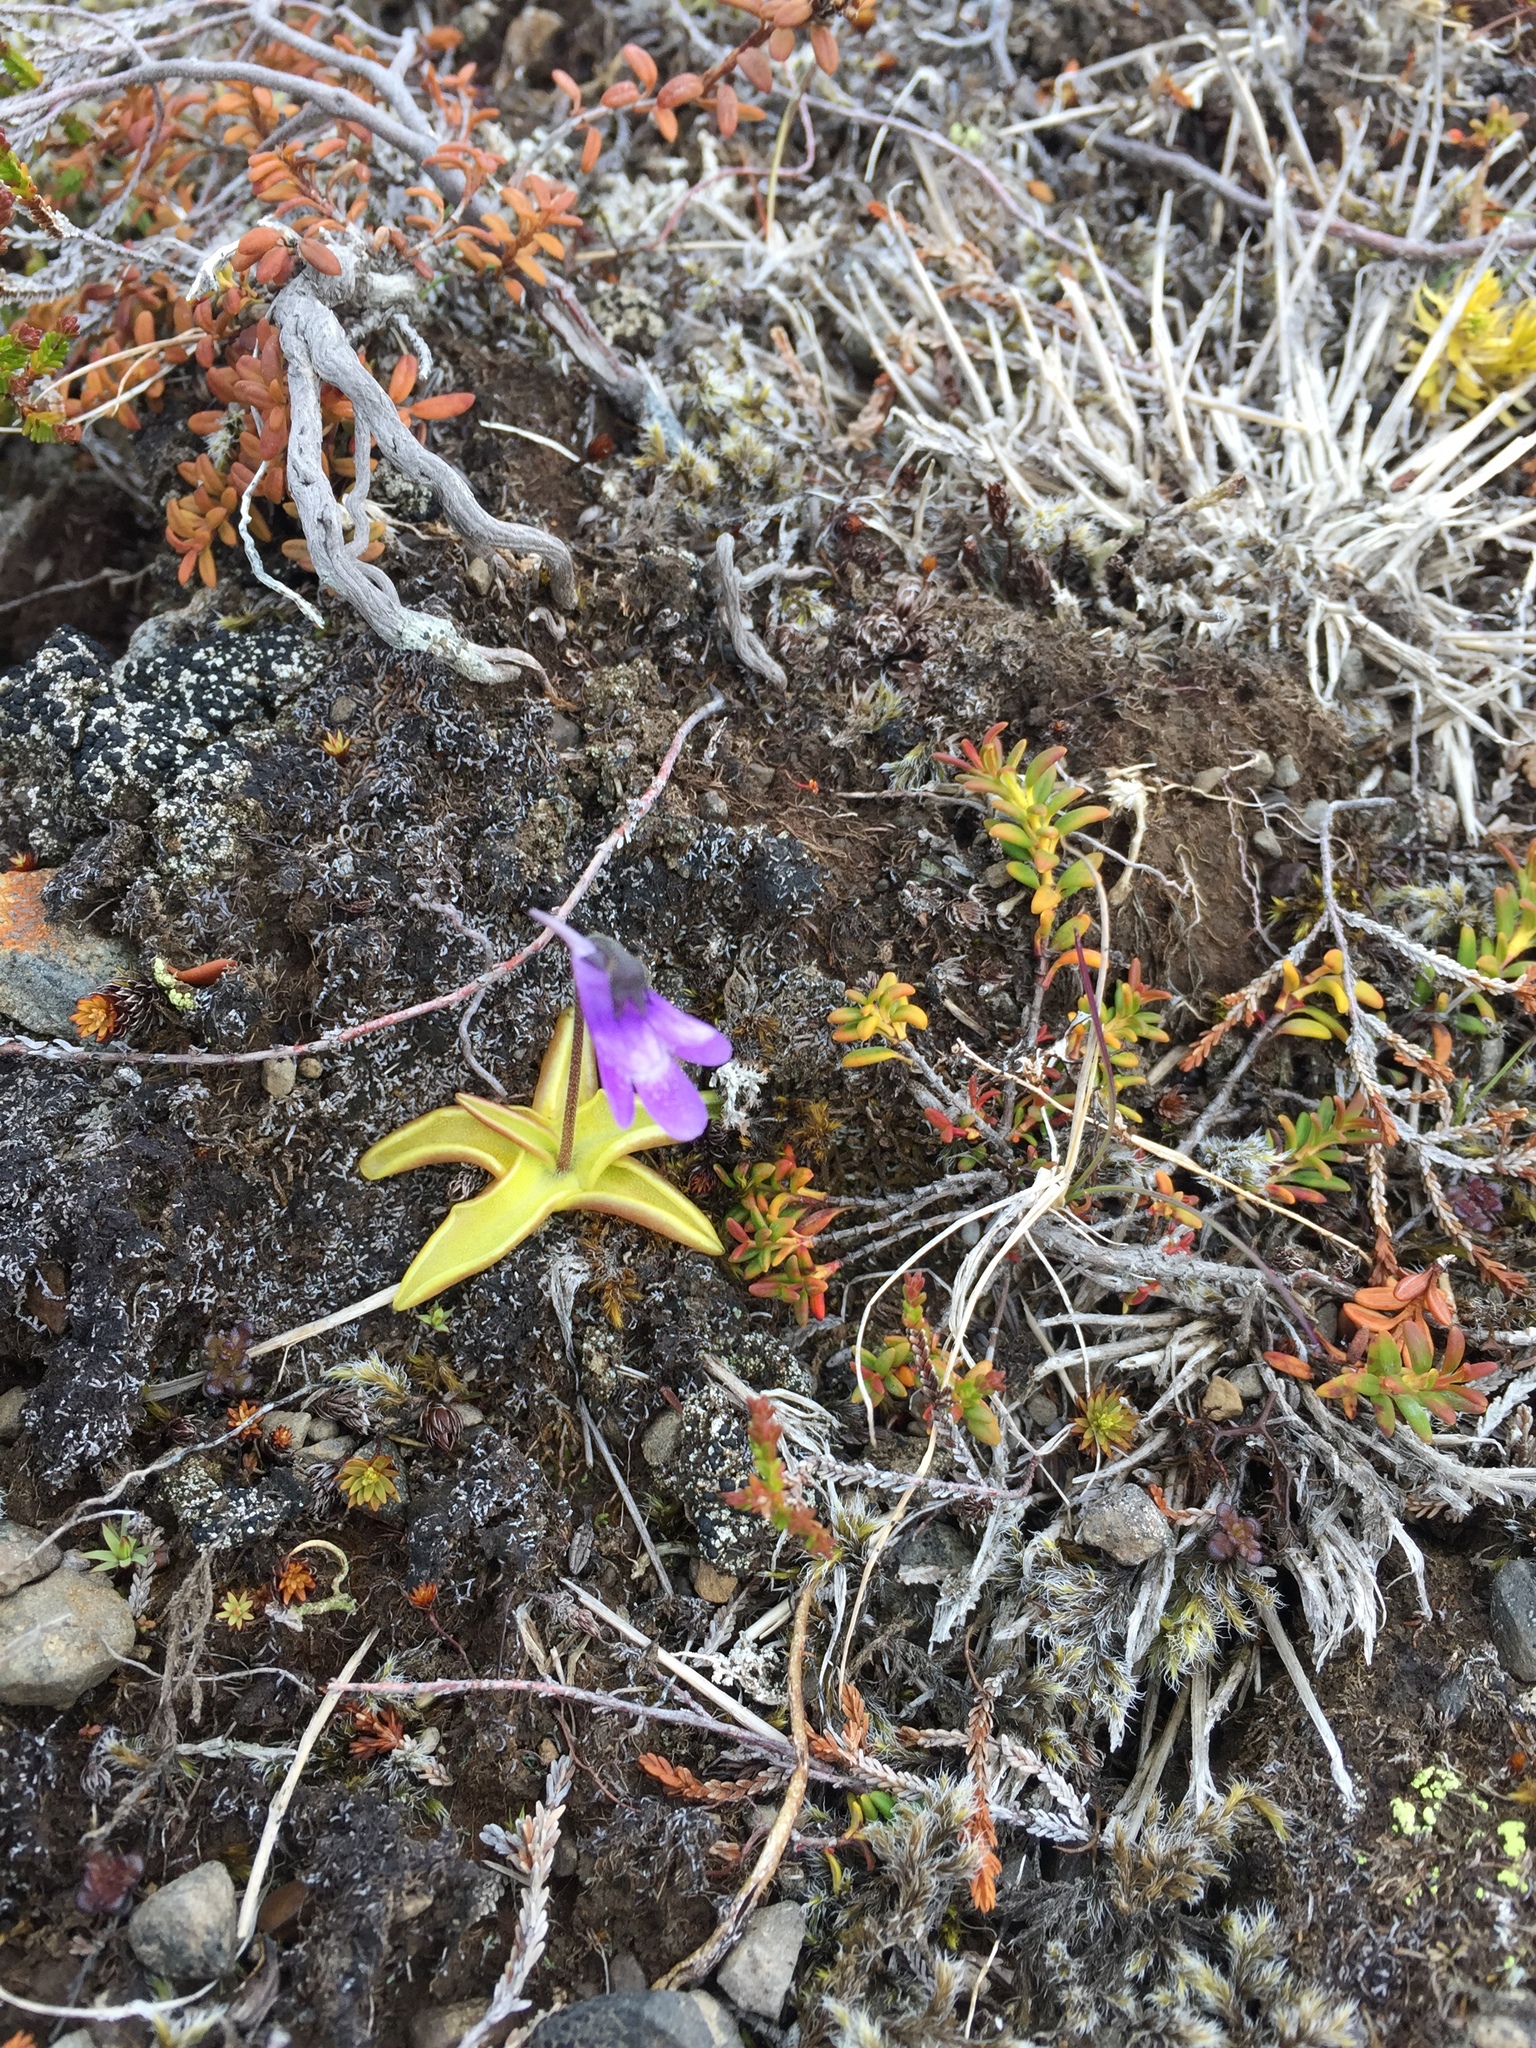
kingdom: Plantae
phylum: Tracheophyta
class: Magnoliopsida
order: Lamiales
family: Lentibulariaceae
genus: Pinguicula
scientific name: Pinguicula vulgaris
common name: Common butterwort
